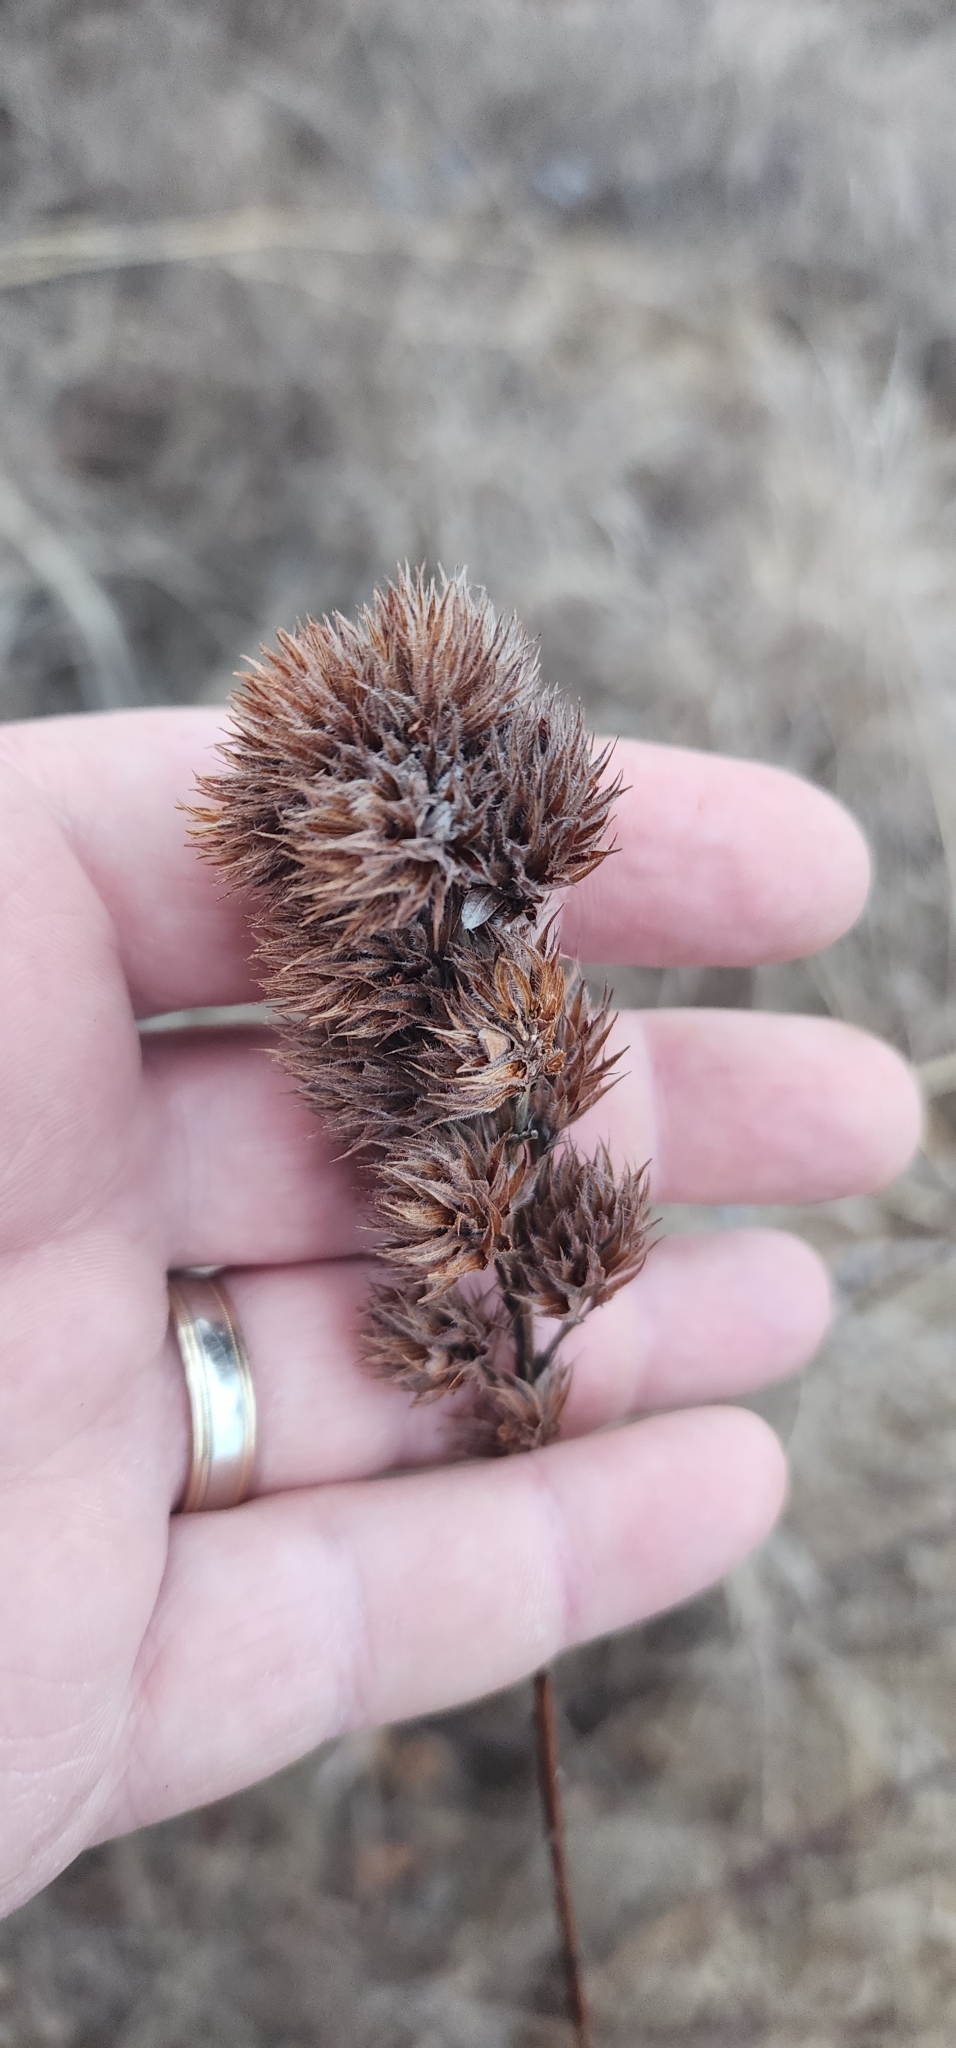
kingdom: Plantae
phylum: Tracheophyta
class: Magnoliopsida
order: Fabales
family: Fabaceae
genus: Lespedeza
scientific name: Lespedeza capitata
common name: Dusty clover
